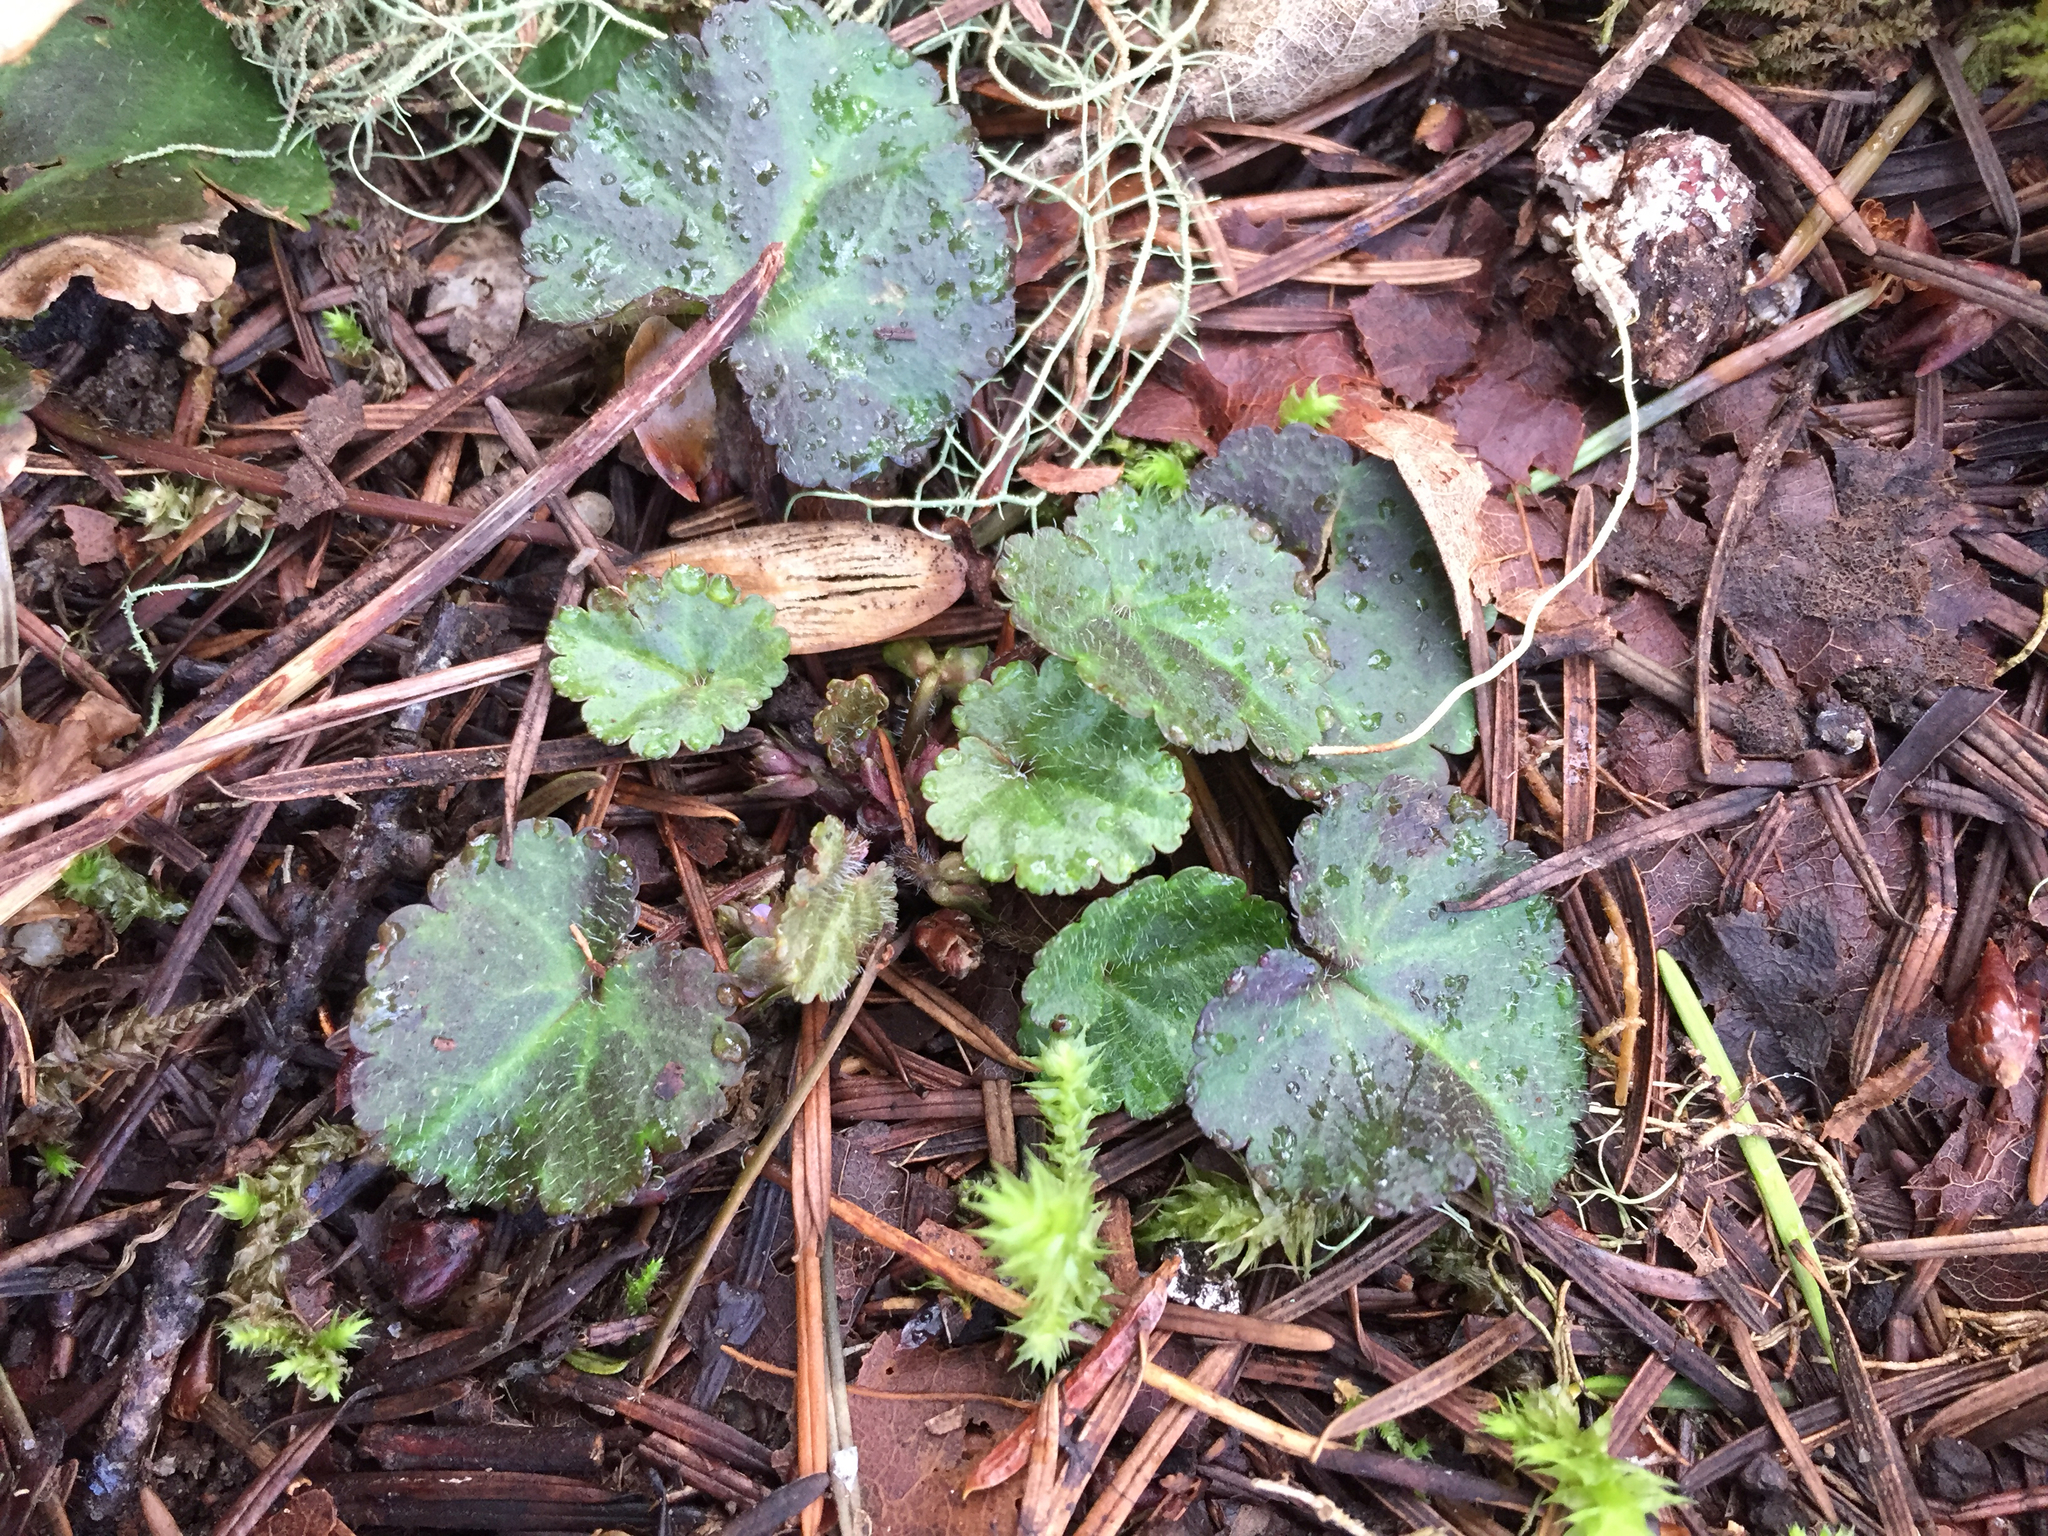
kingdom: Plantae
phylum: Tracheophyta
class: Magnoliopsida
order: Lamiales
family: Plantaginaceae
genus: Synthyris
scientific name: Synthyris reniformis
